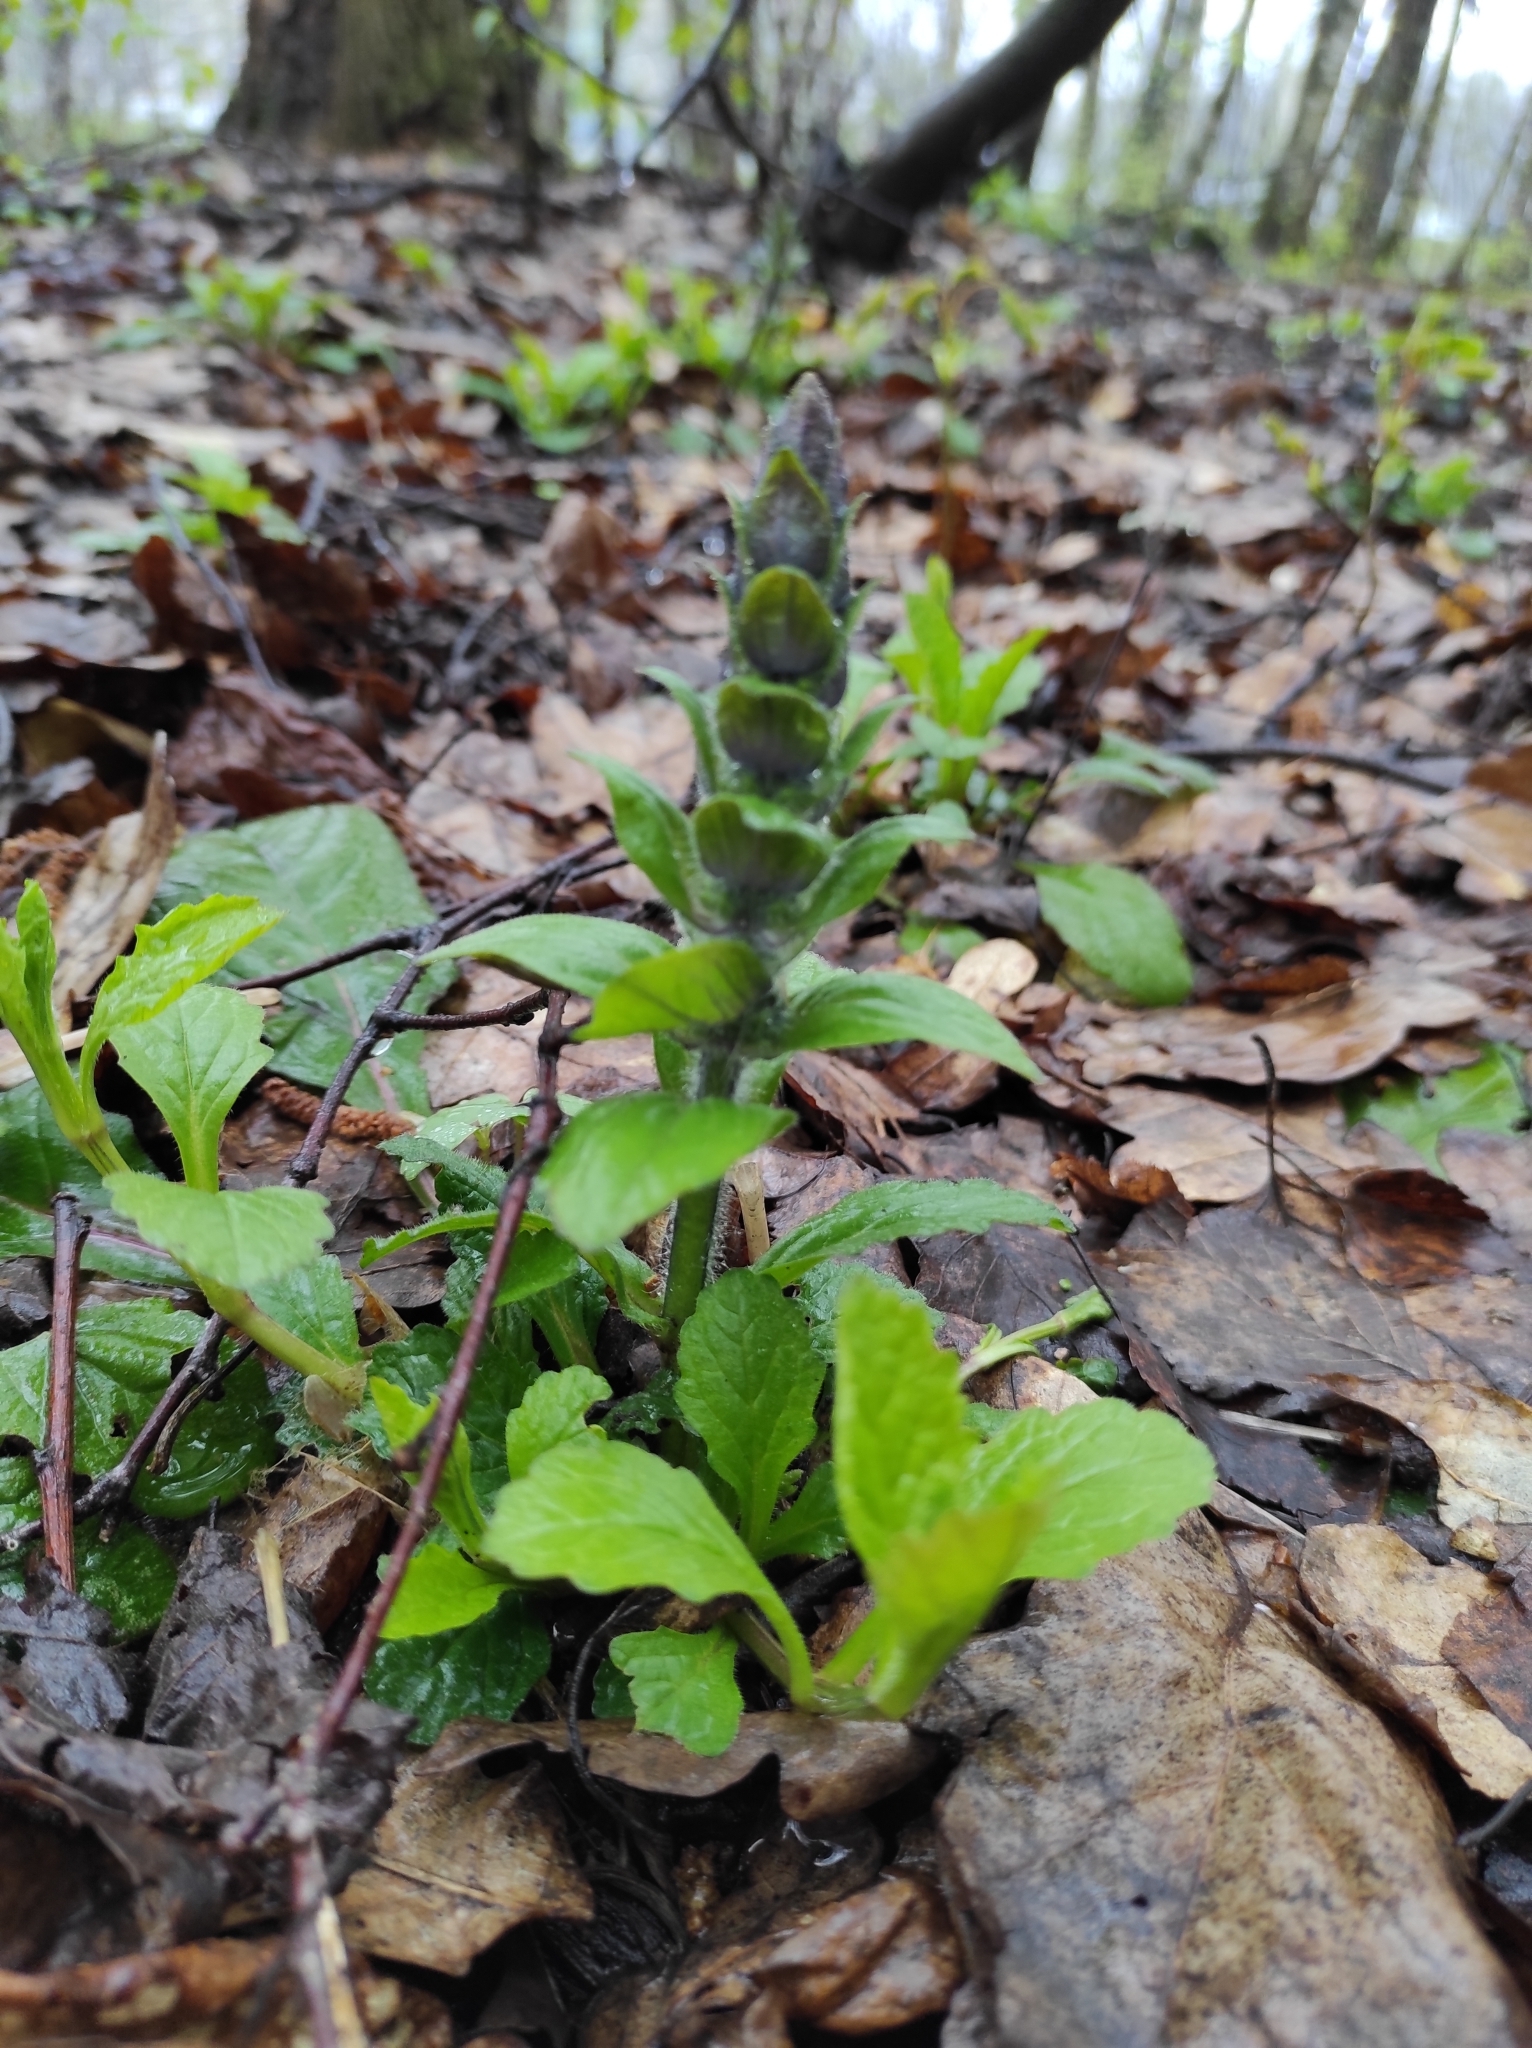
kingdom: Plantae
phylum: Tracheophyta
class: Magnoliopsida
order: Lamiales
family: Lamiaceae
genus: Ajuga
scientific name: Ajuga reptans
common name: Bugle
